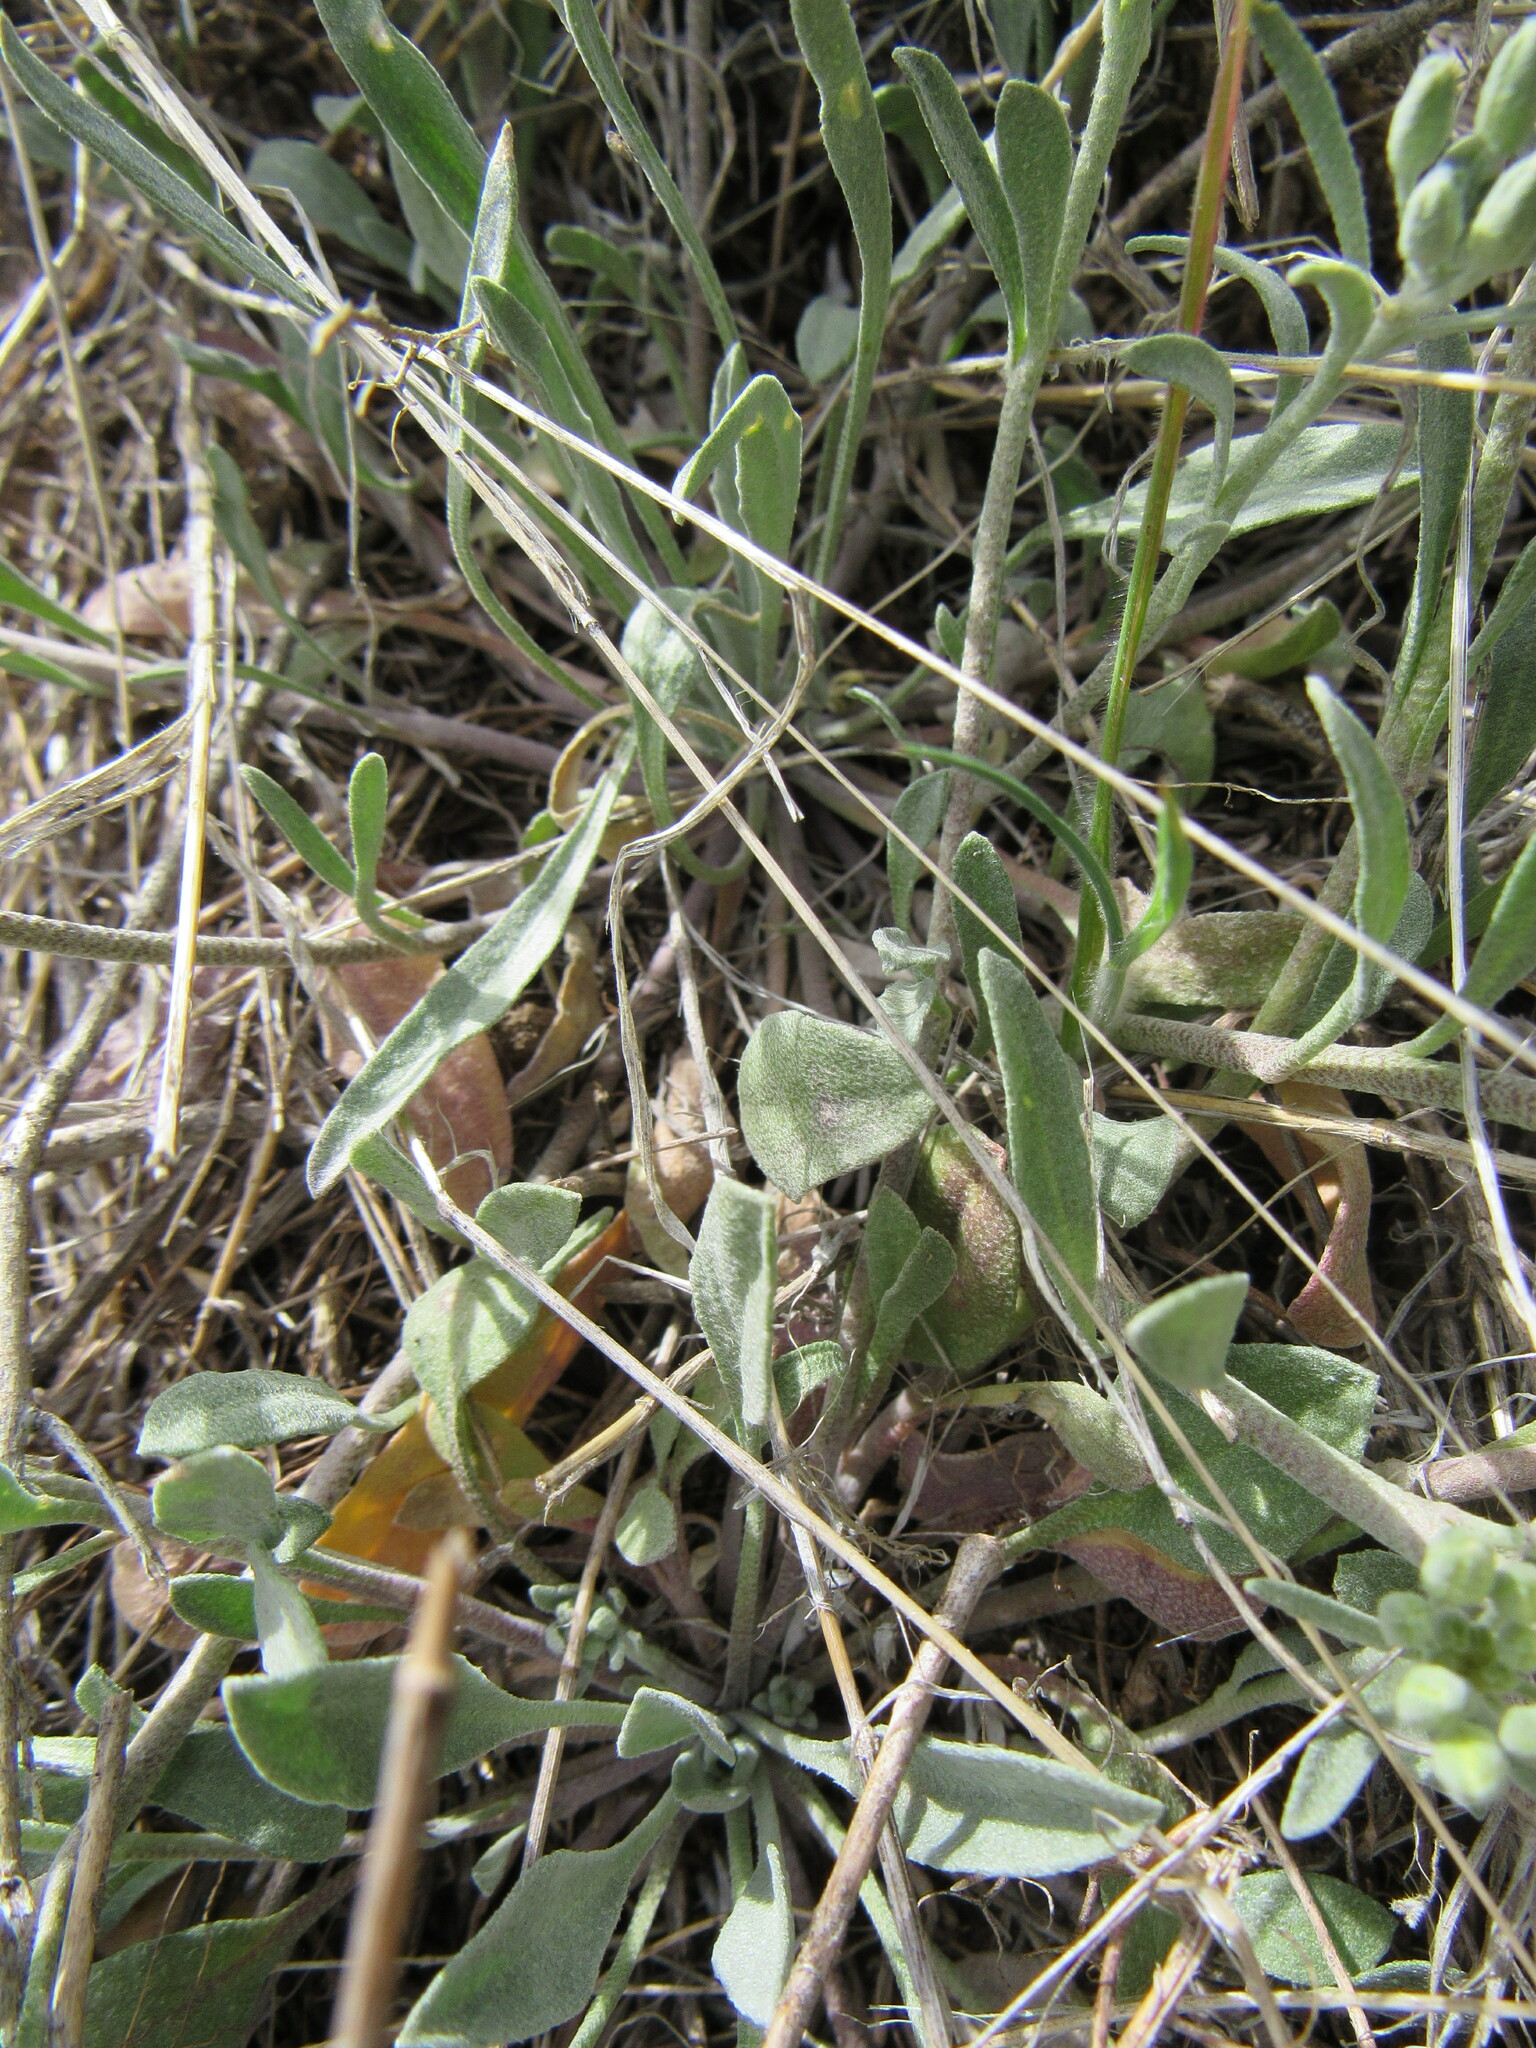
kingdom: Plantae
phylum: Tracheophyta
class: Magnoliopsida
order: Brassicales
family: Brassicaceae
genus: Physaria
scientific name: Physaria montana
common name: Mountain bladderpod
